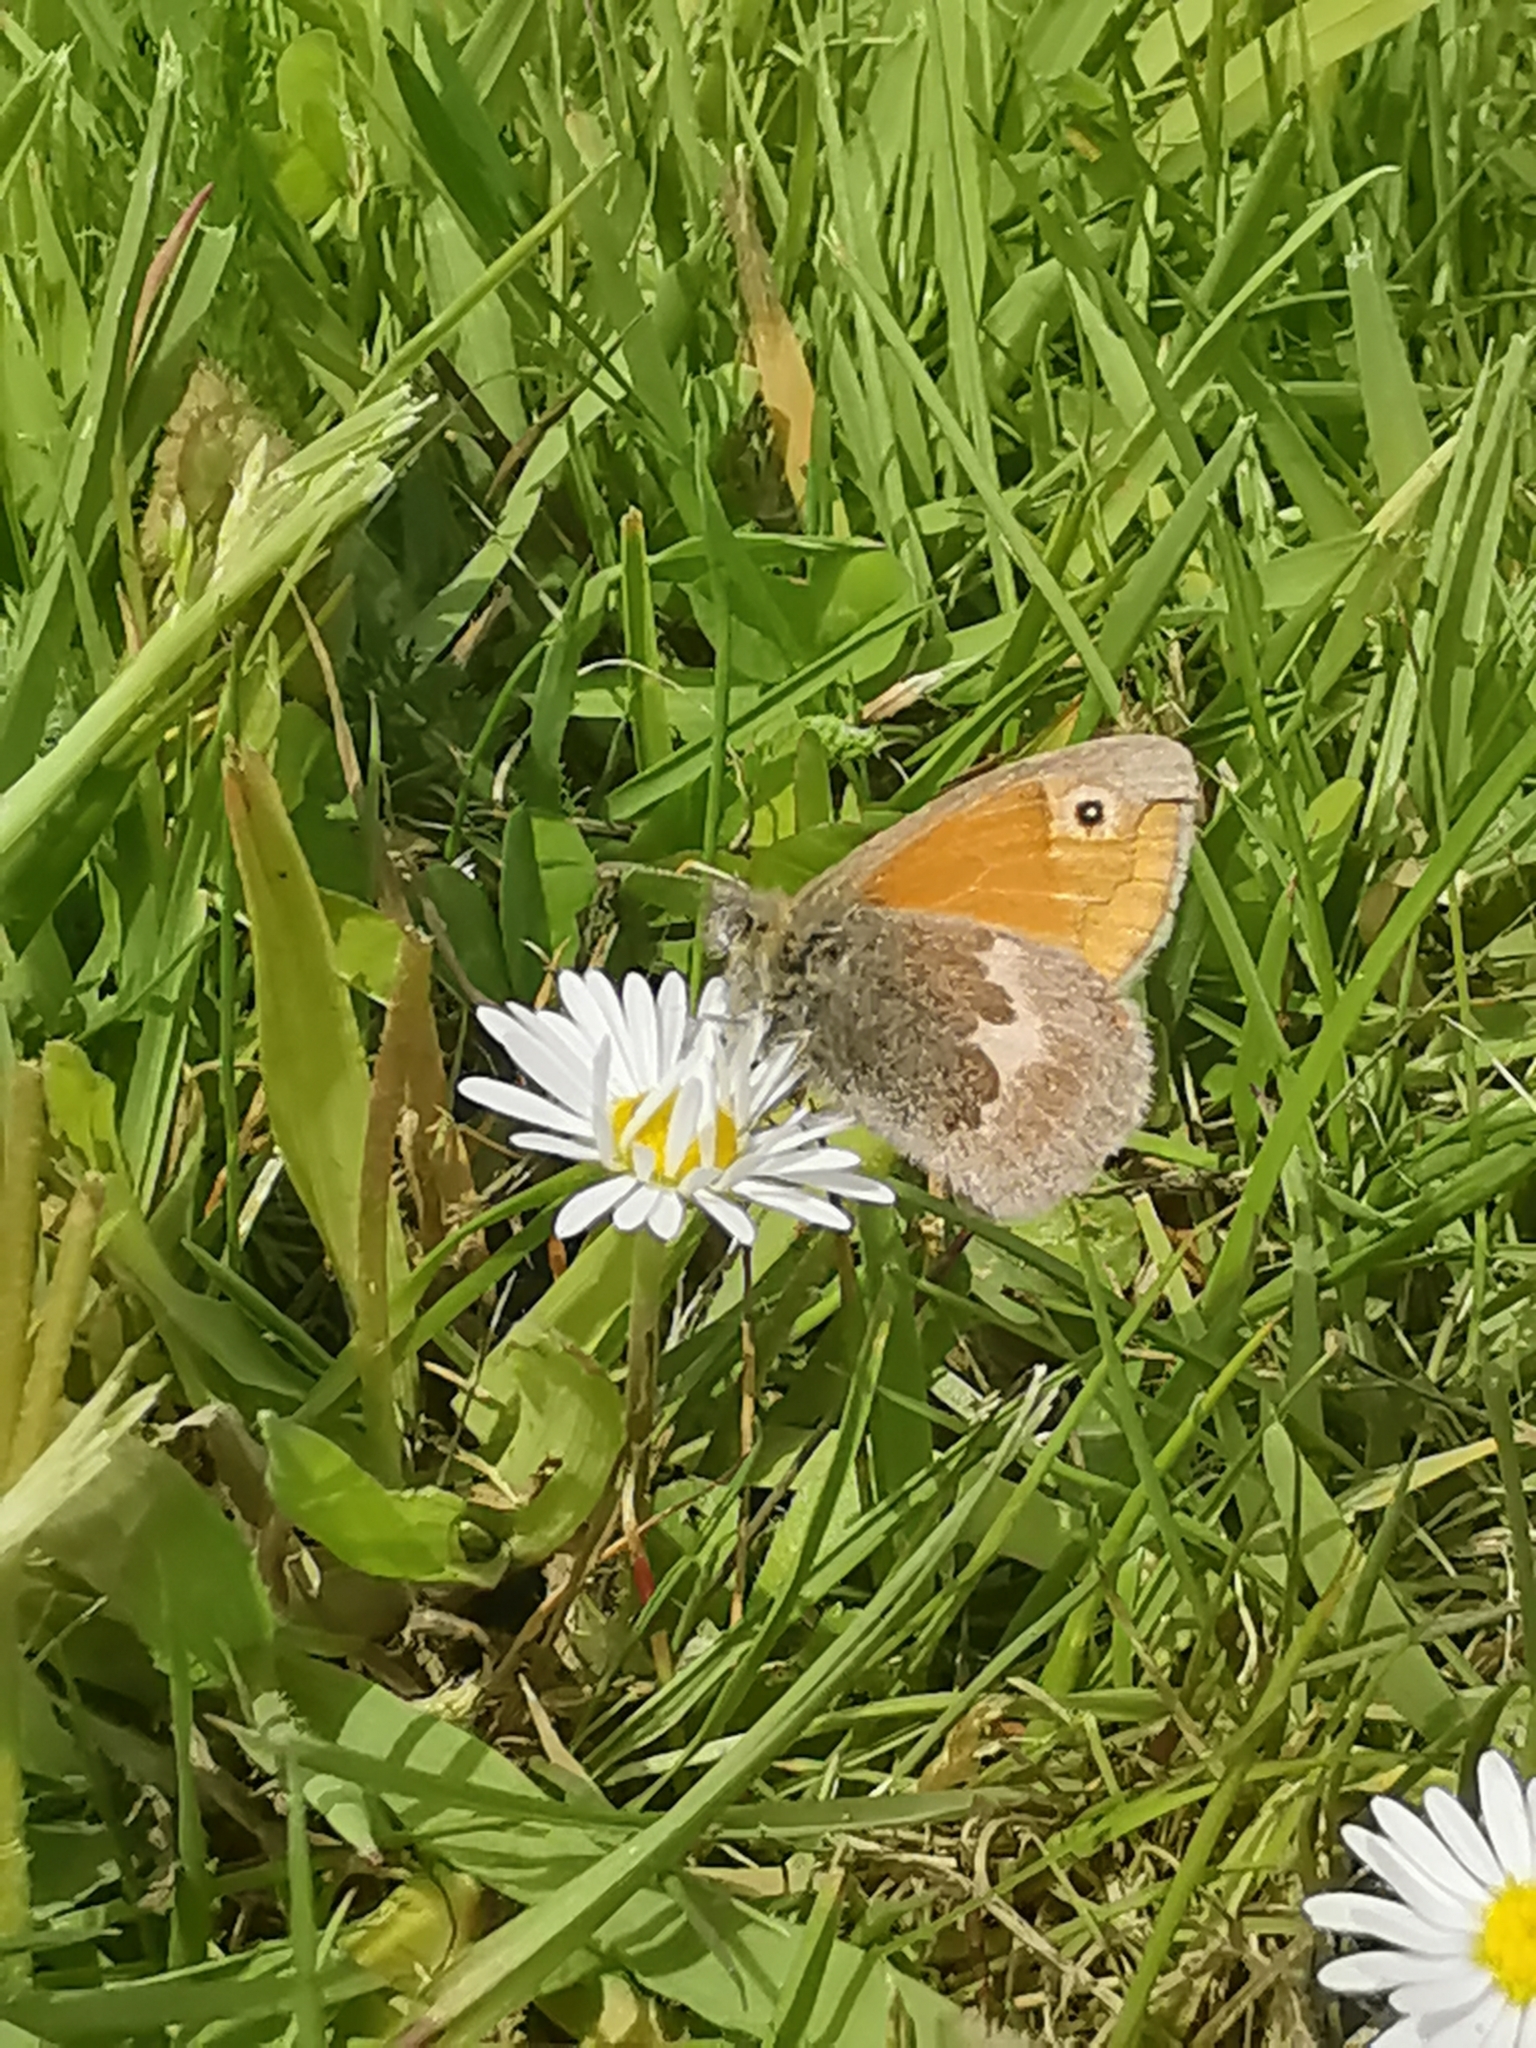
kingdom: Animalia
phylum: Arthropoda
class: Insecta
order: Lepidoptera
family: Nymphalidae
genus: Coenonympha
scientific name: Coenonympha pamphilus
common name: Small heath
